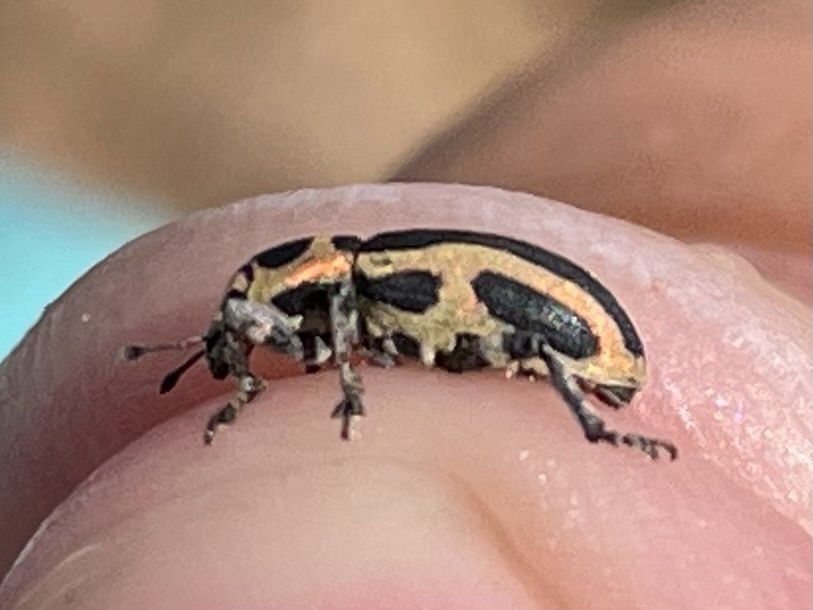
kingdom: Animalia
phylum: Arthropoda
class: Insecta
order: Coleoptera
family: Curculionidae
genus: Eudiagogus
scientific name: Eudiagogus pulcher
